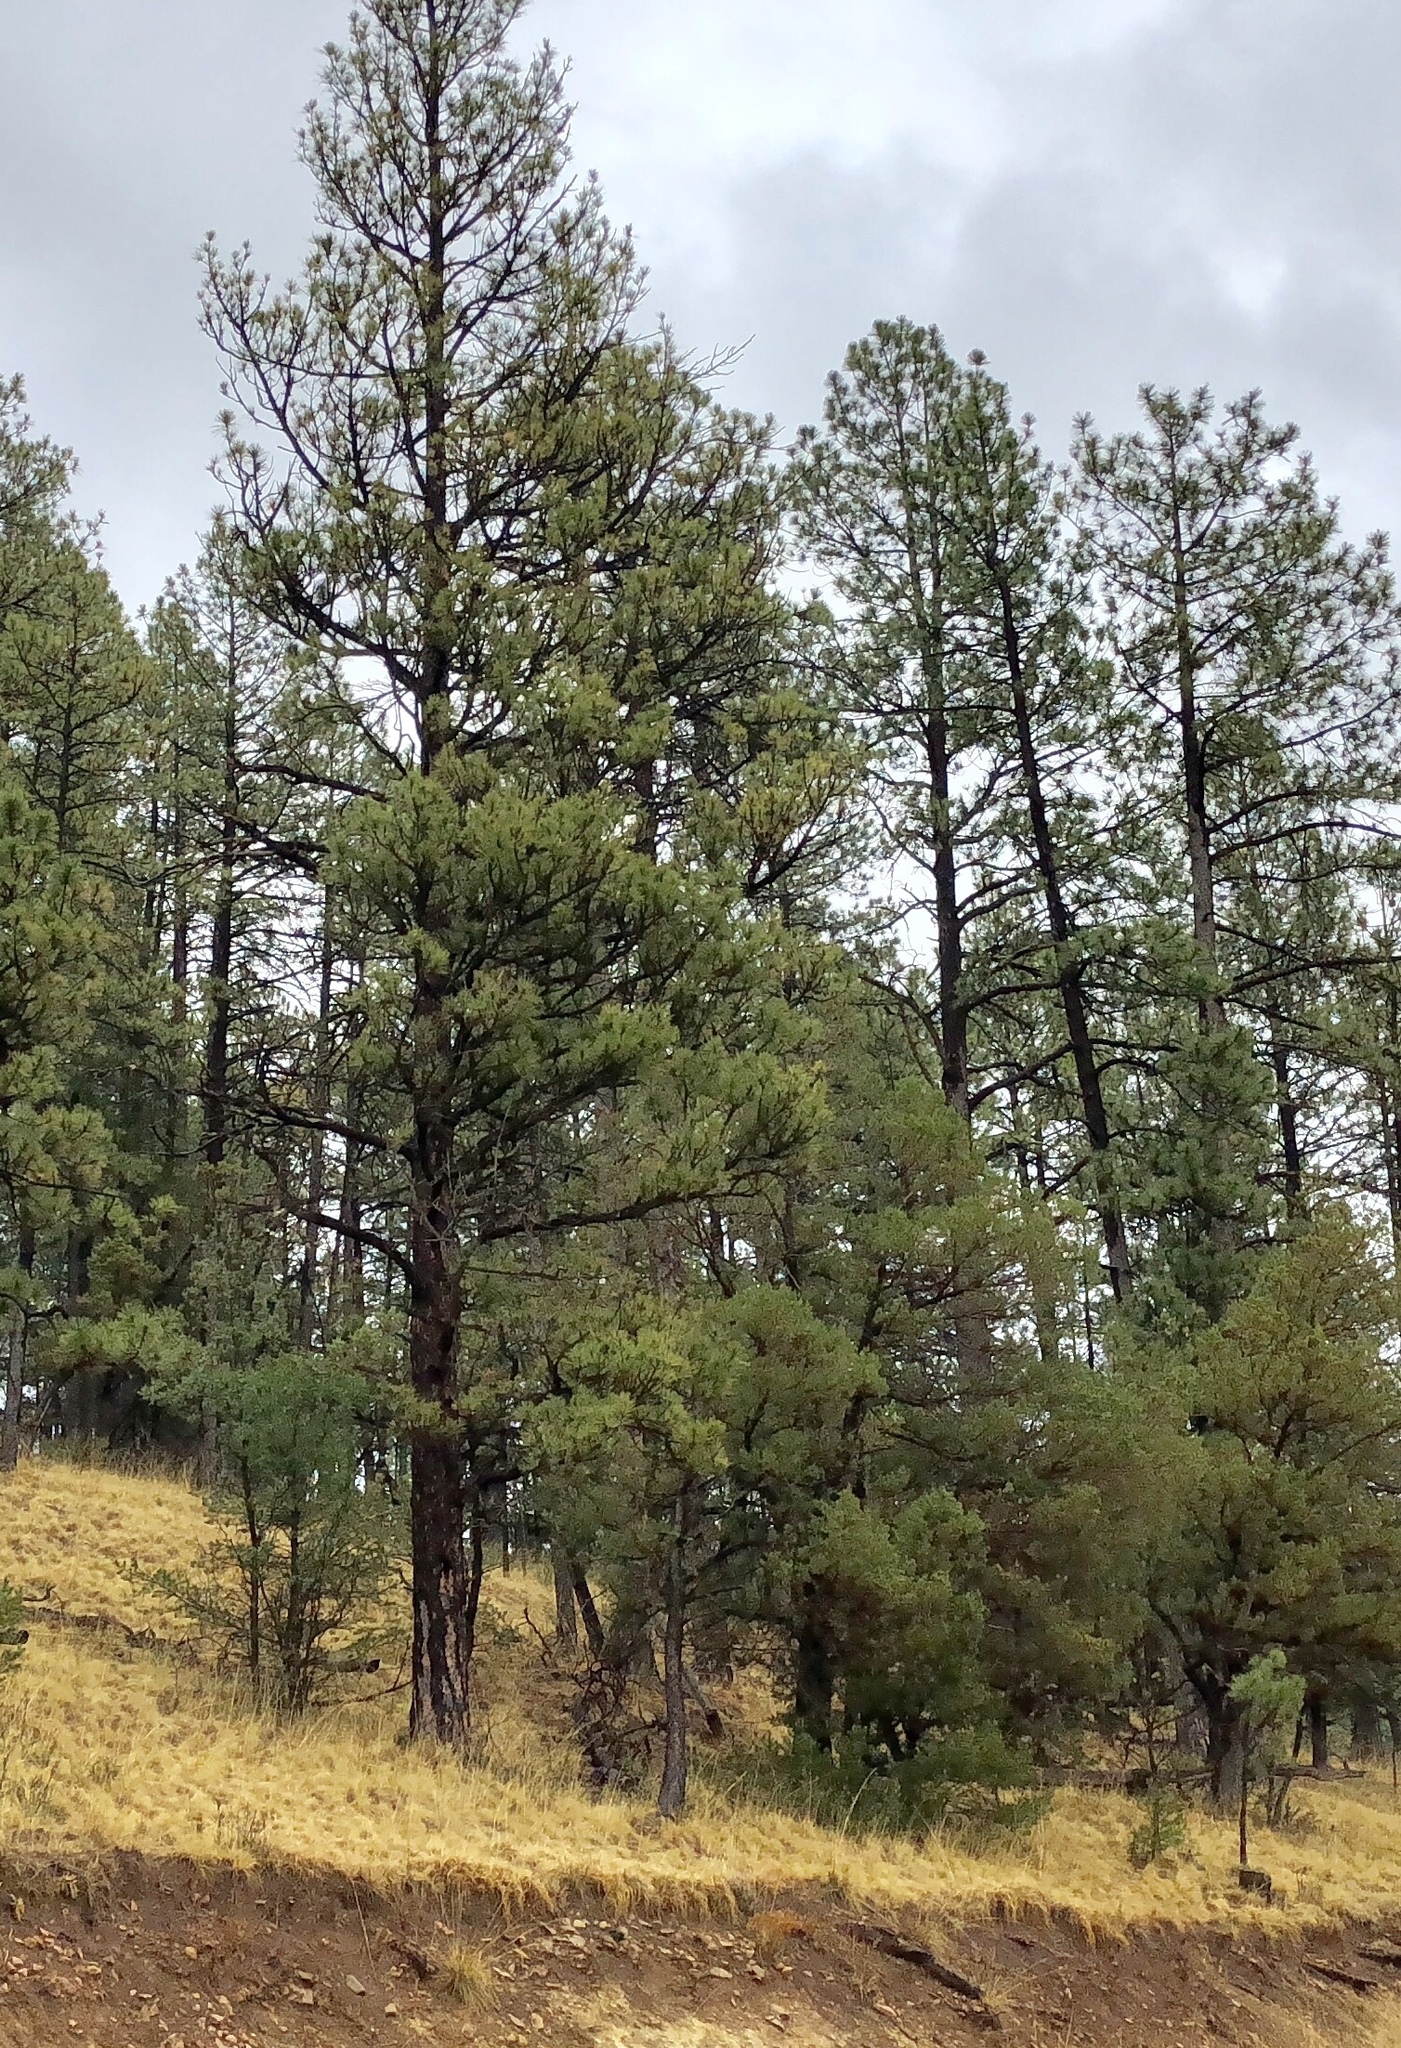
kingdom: Plantae
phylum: Tracheophyta
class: Pinopsida
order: Pinales
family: Pinaceae
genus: Pinus
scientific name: Pinus ponderosa
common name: Western yellow-pine
